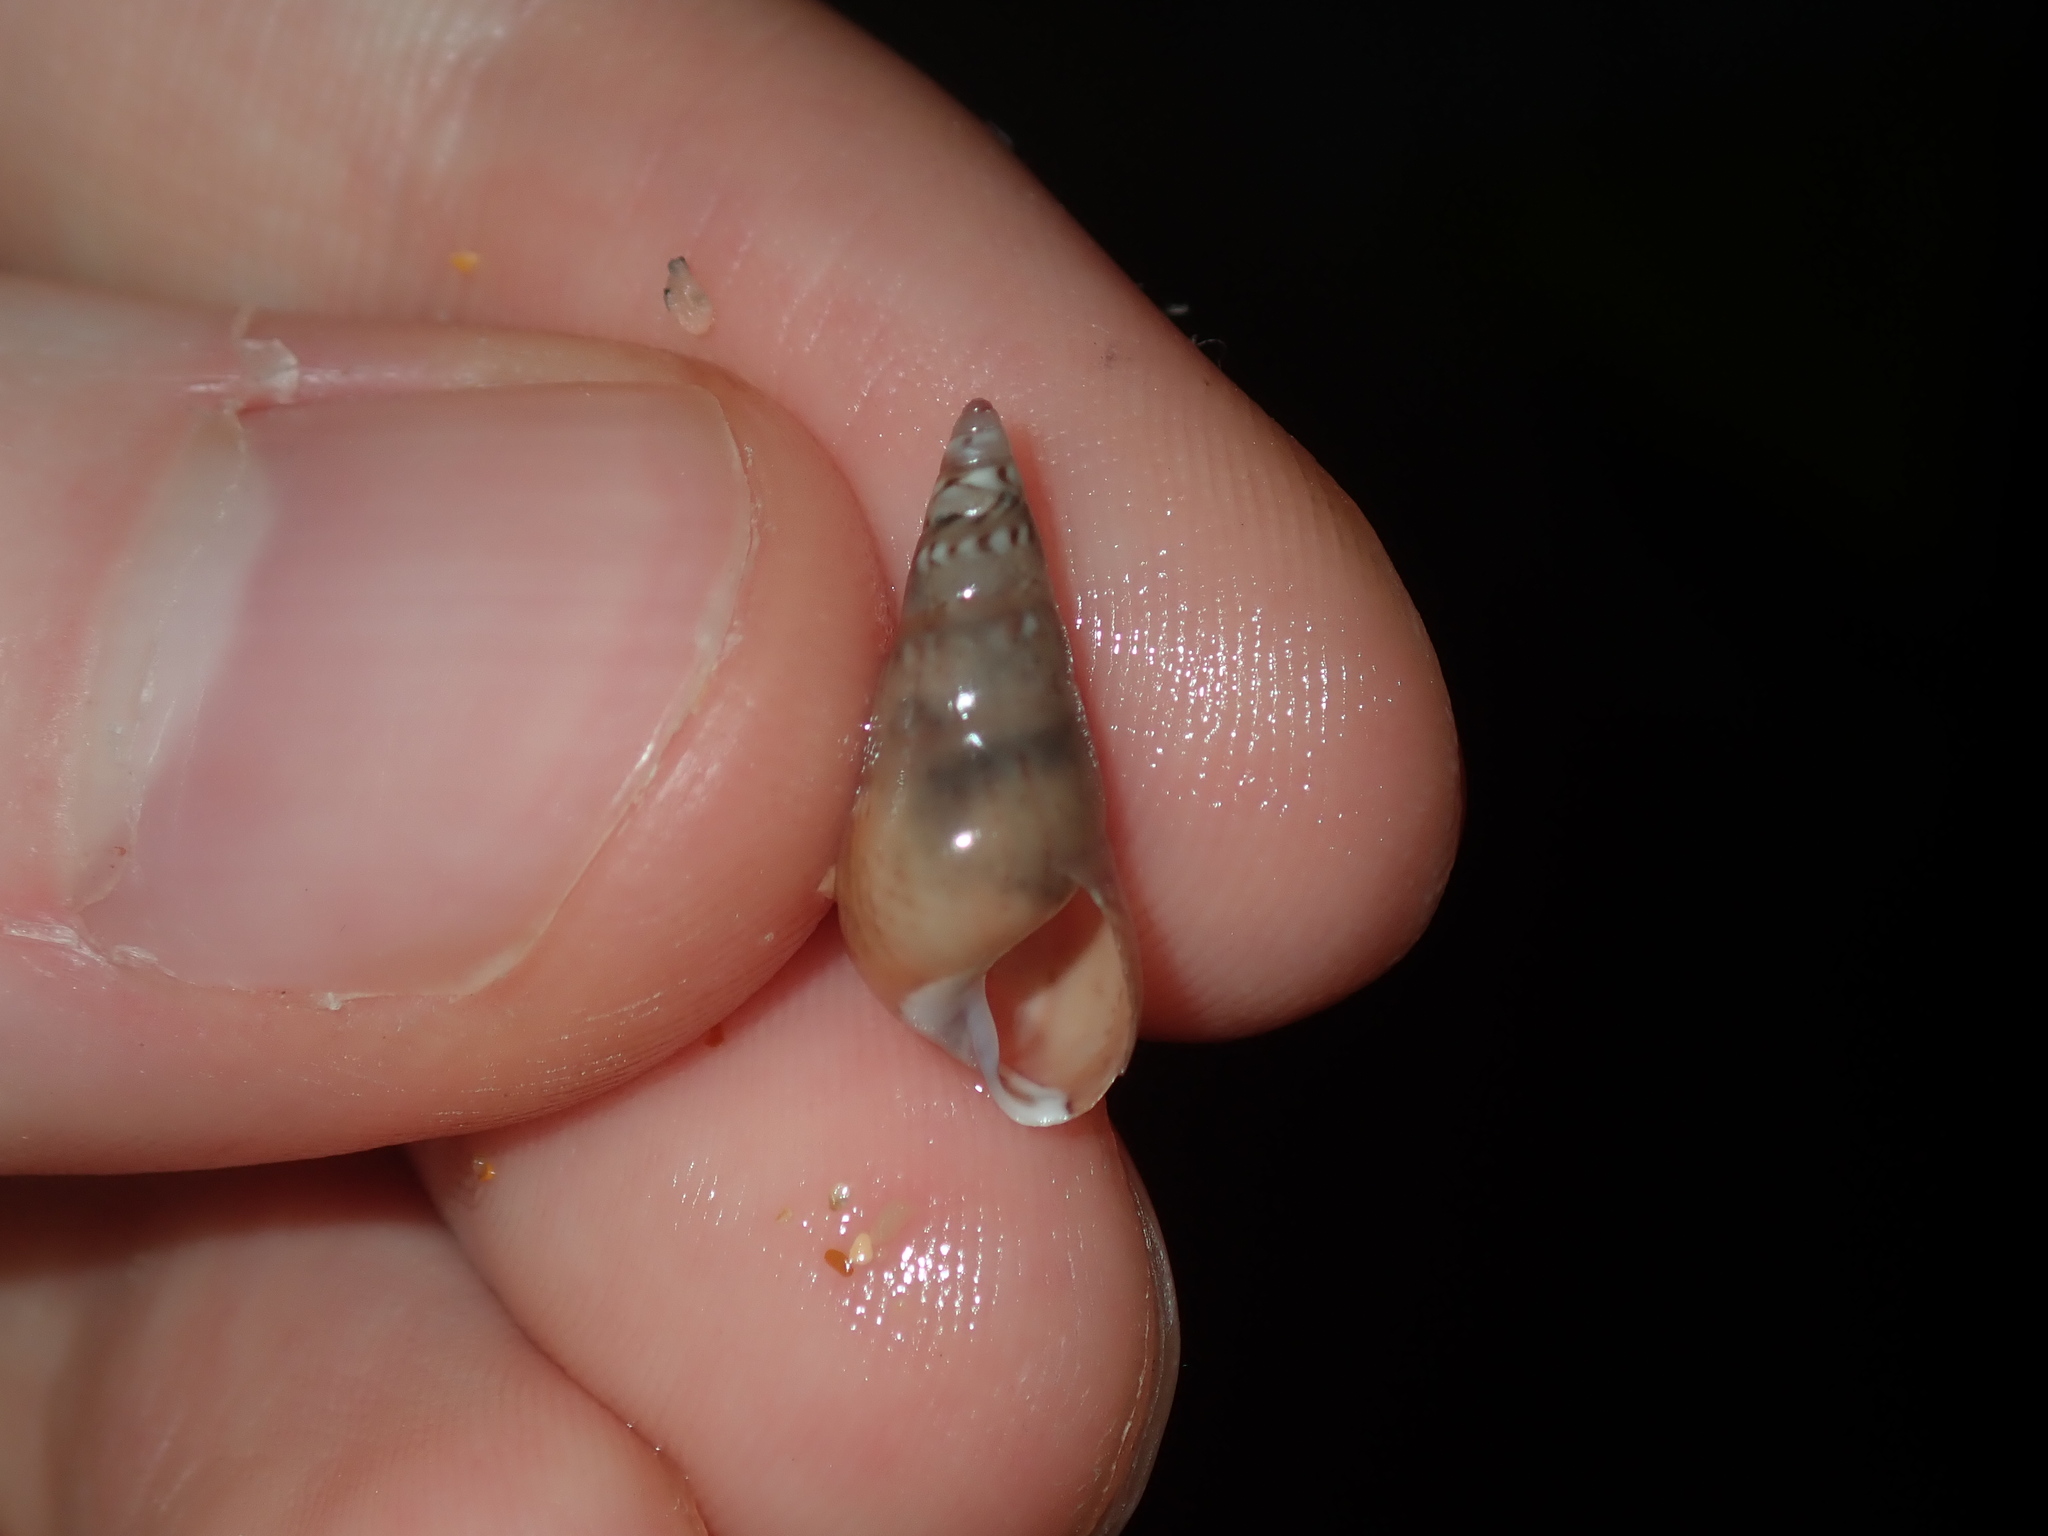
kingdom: Animalia
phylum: Mollusca
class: Gastropoda
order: Trochida
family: Trochidae
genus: Bankivia
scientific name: Bankivia fasciata
